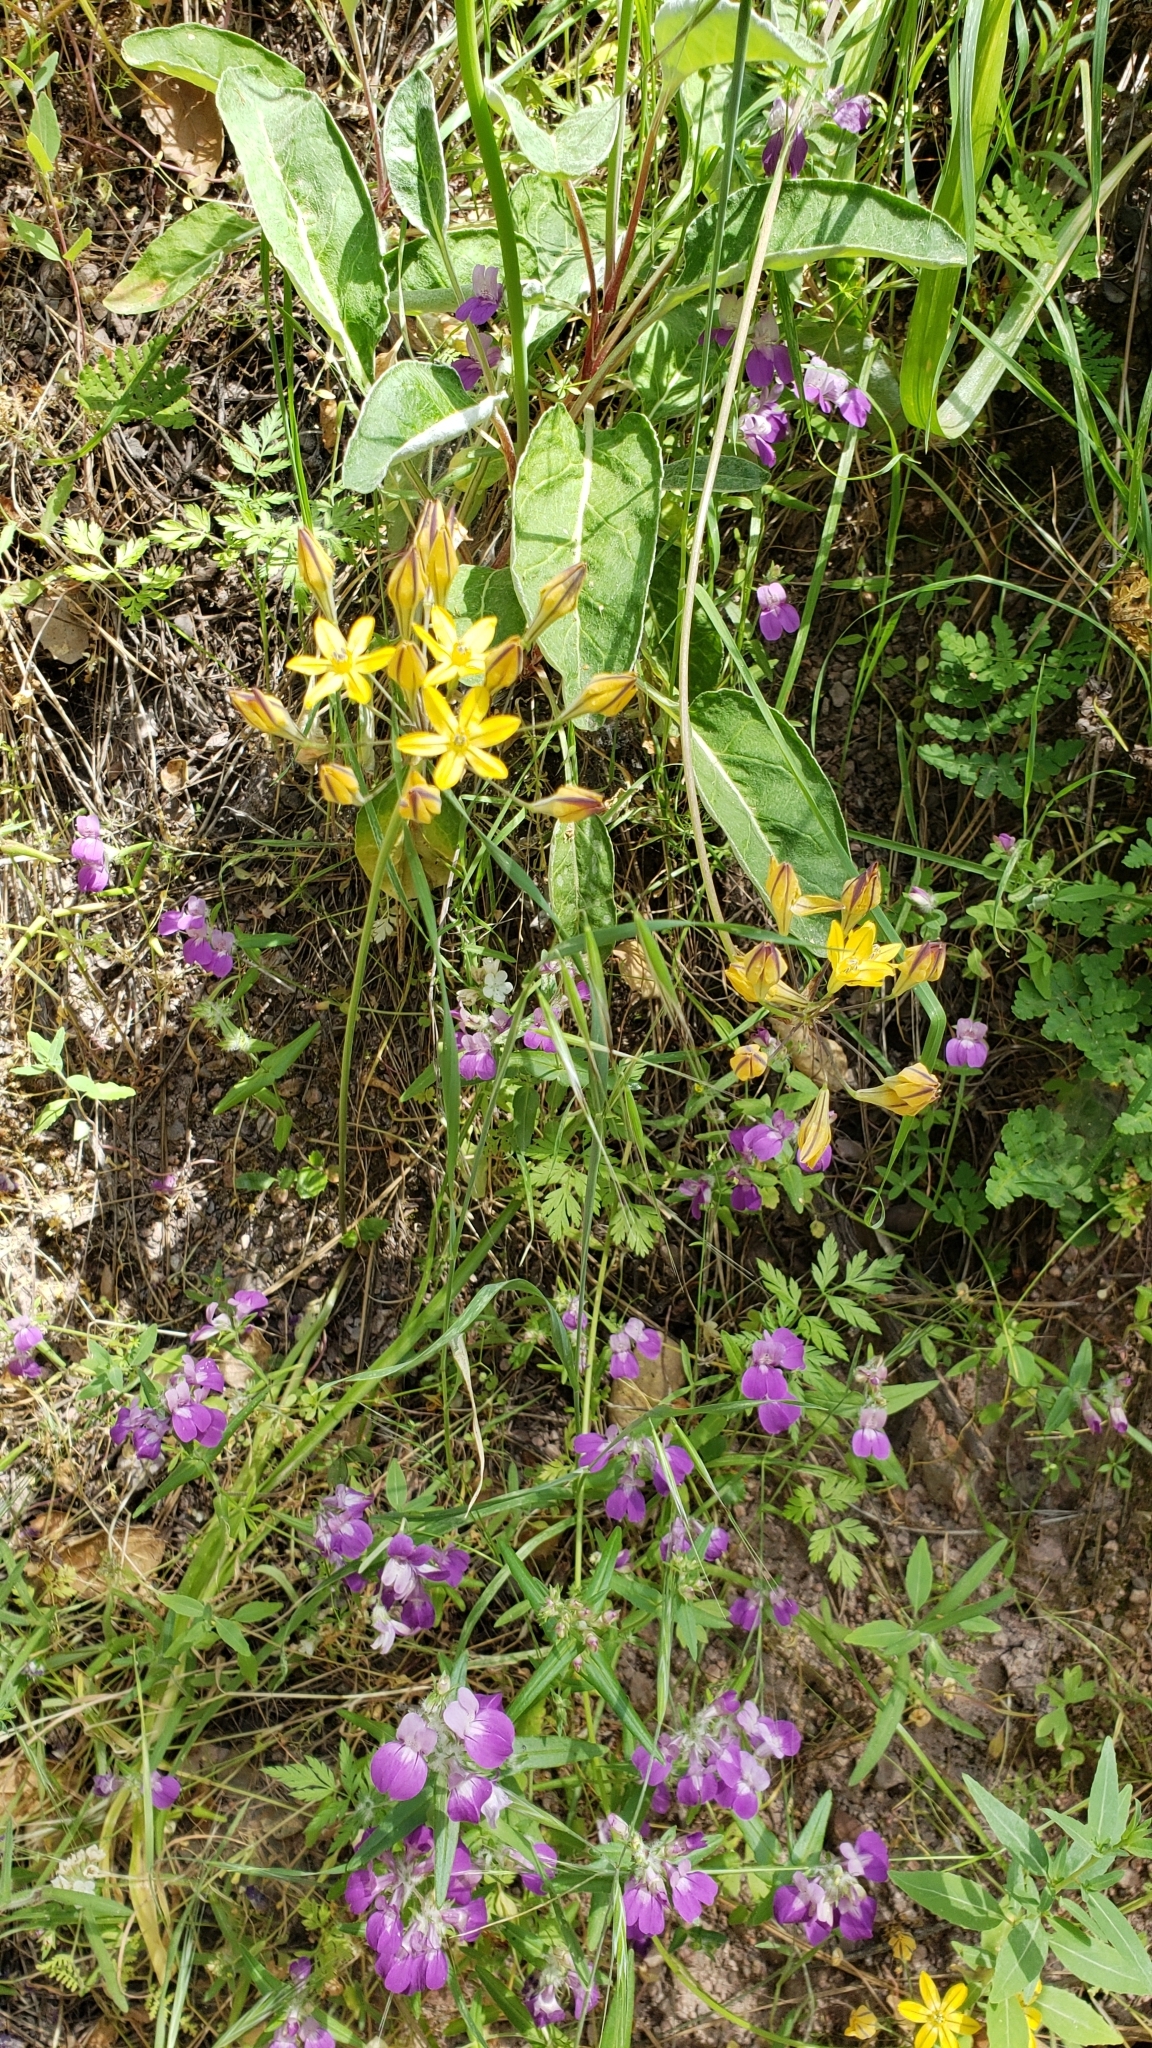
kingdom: Plantae
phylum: Tracheophyta
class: Liliopsida
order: Asparagales
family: Asparagaceae
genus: Triteleia
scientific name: Triteleia lugens
